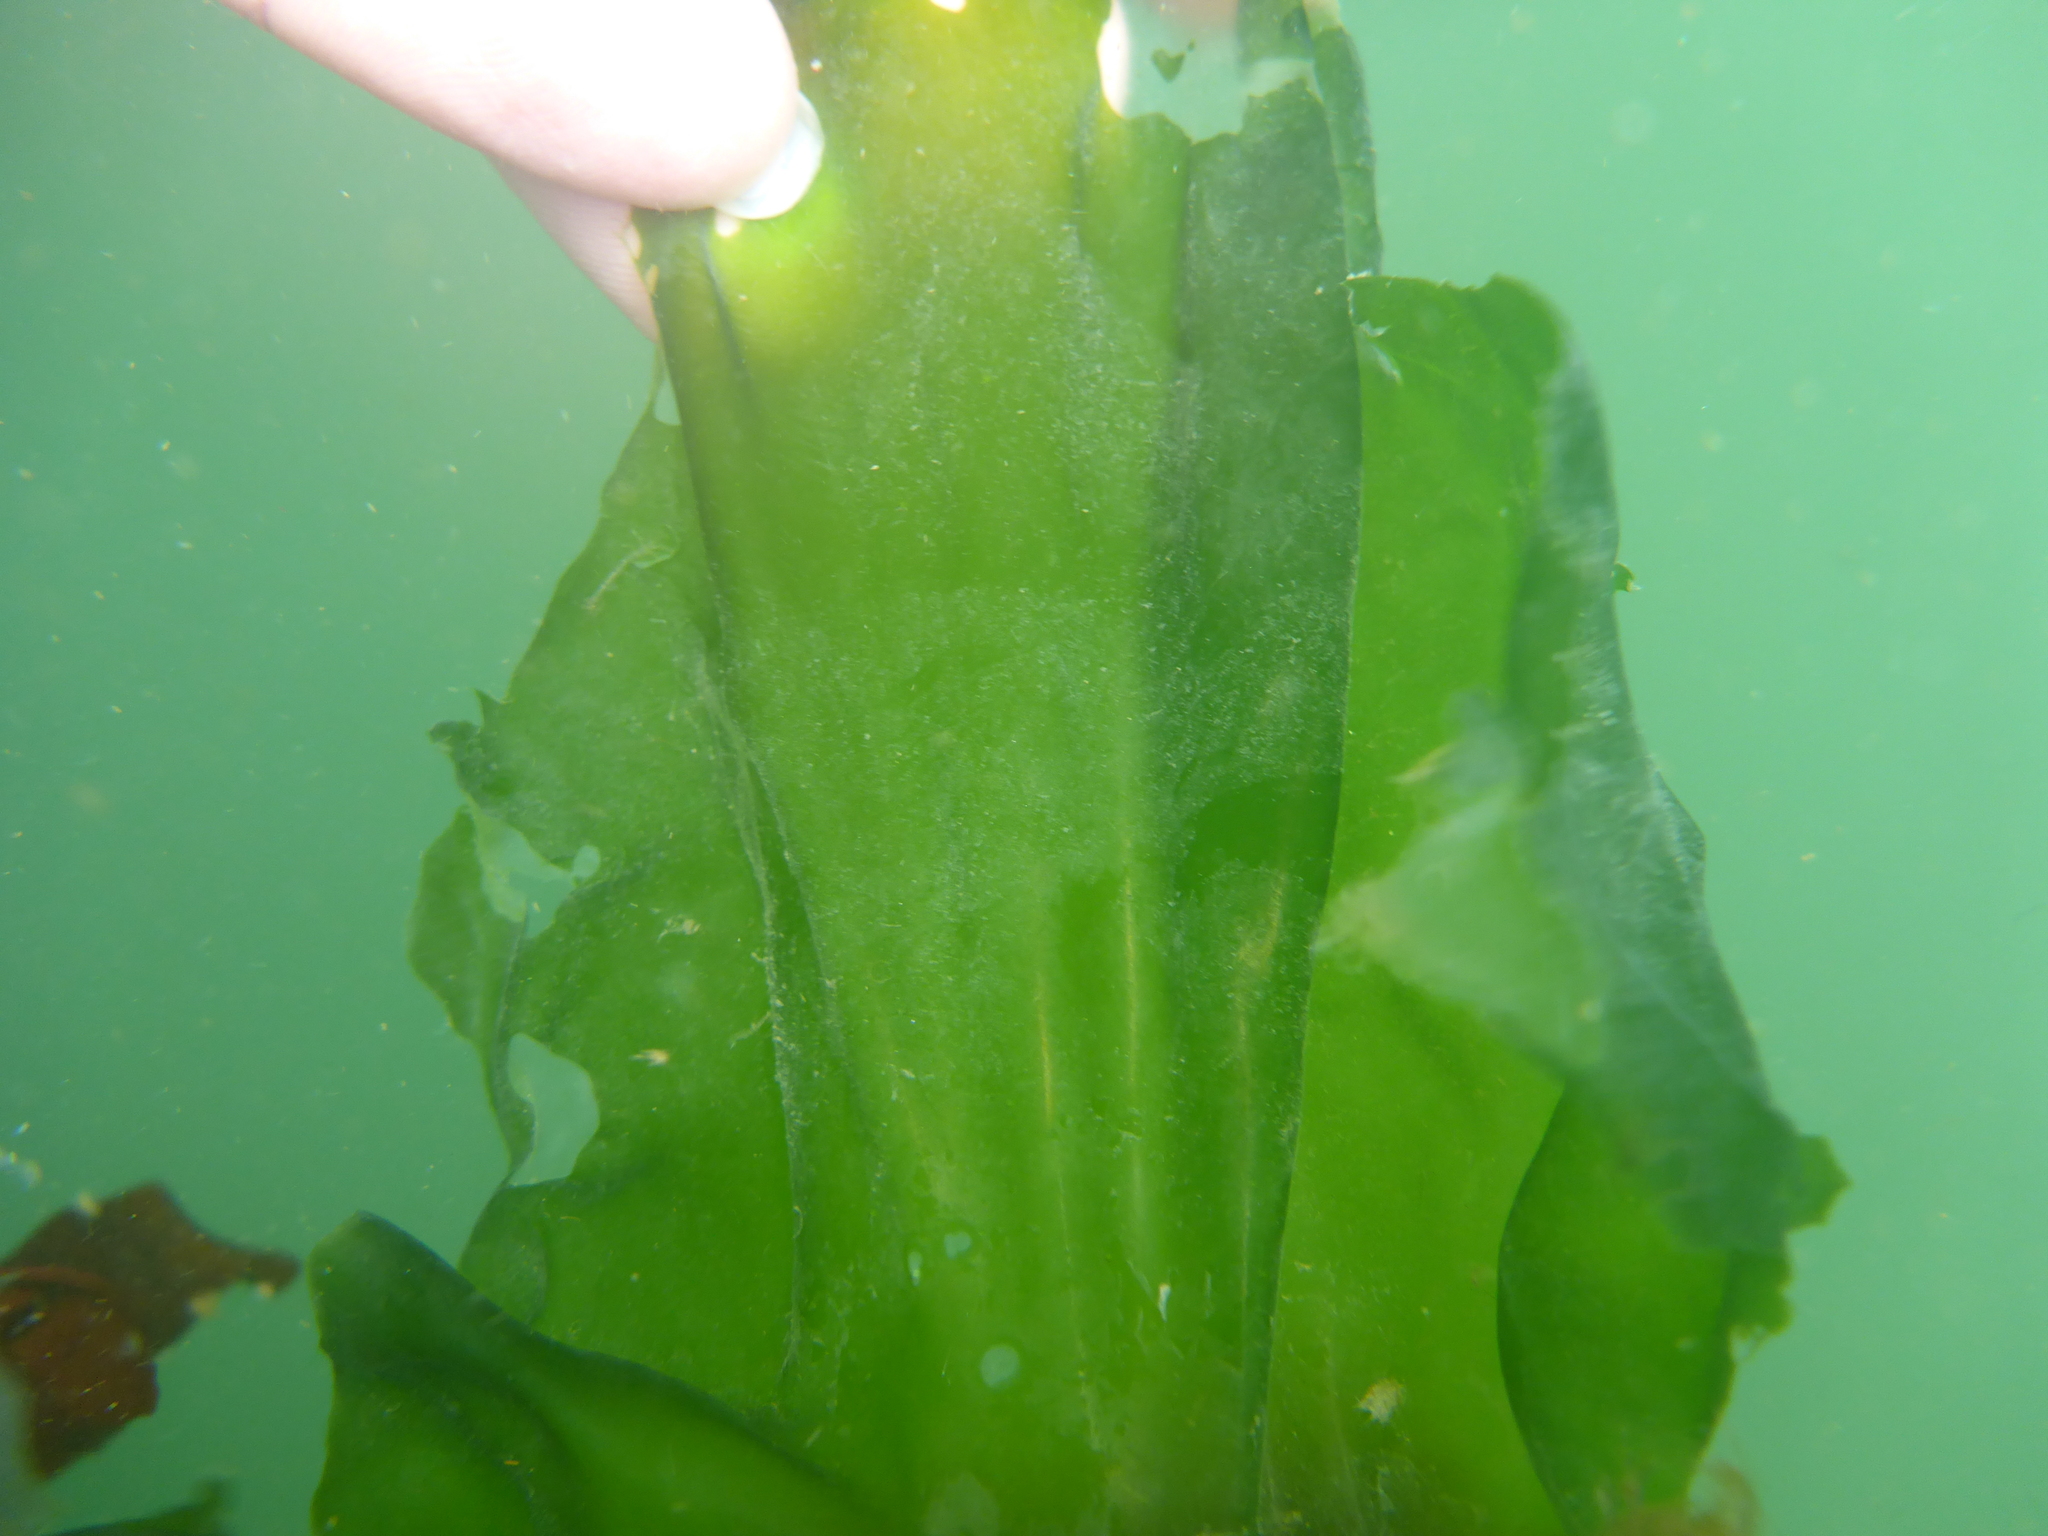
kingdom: Plantae
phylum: Chlorophyta
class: Ulvophyceae
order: Ulvales
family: Ulvaceae
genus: Ulva
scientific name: Ulva lactuca
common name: Sea lettuce
